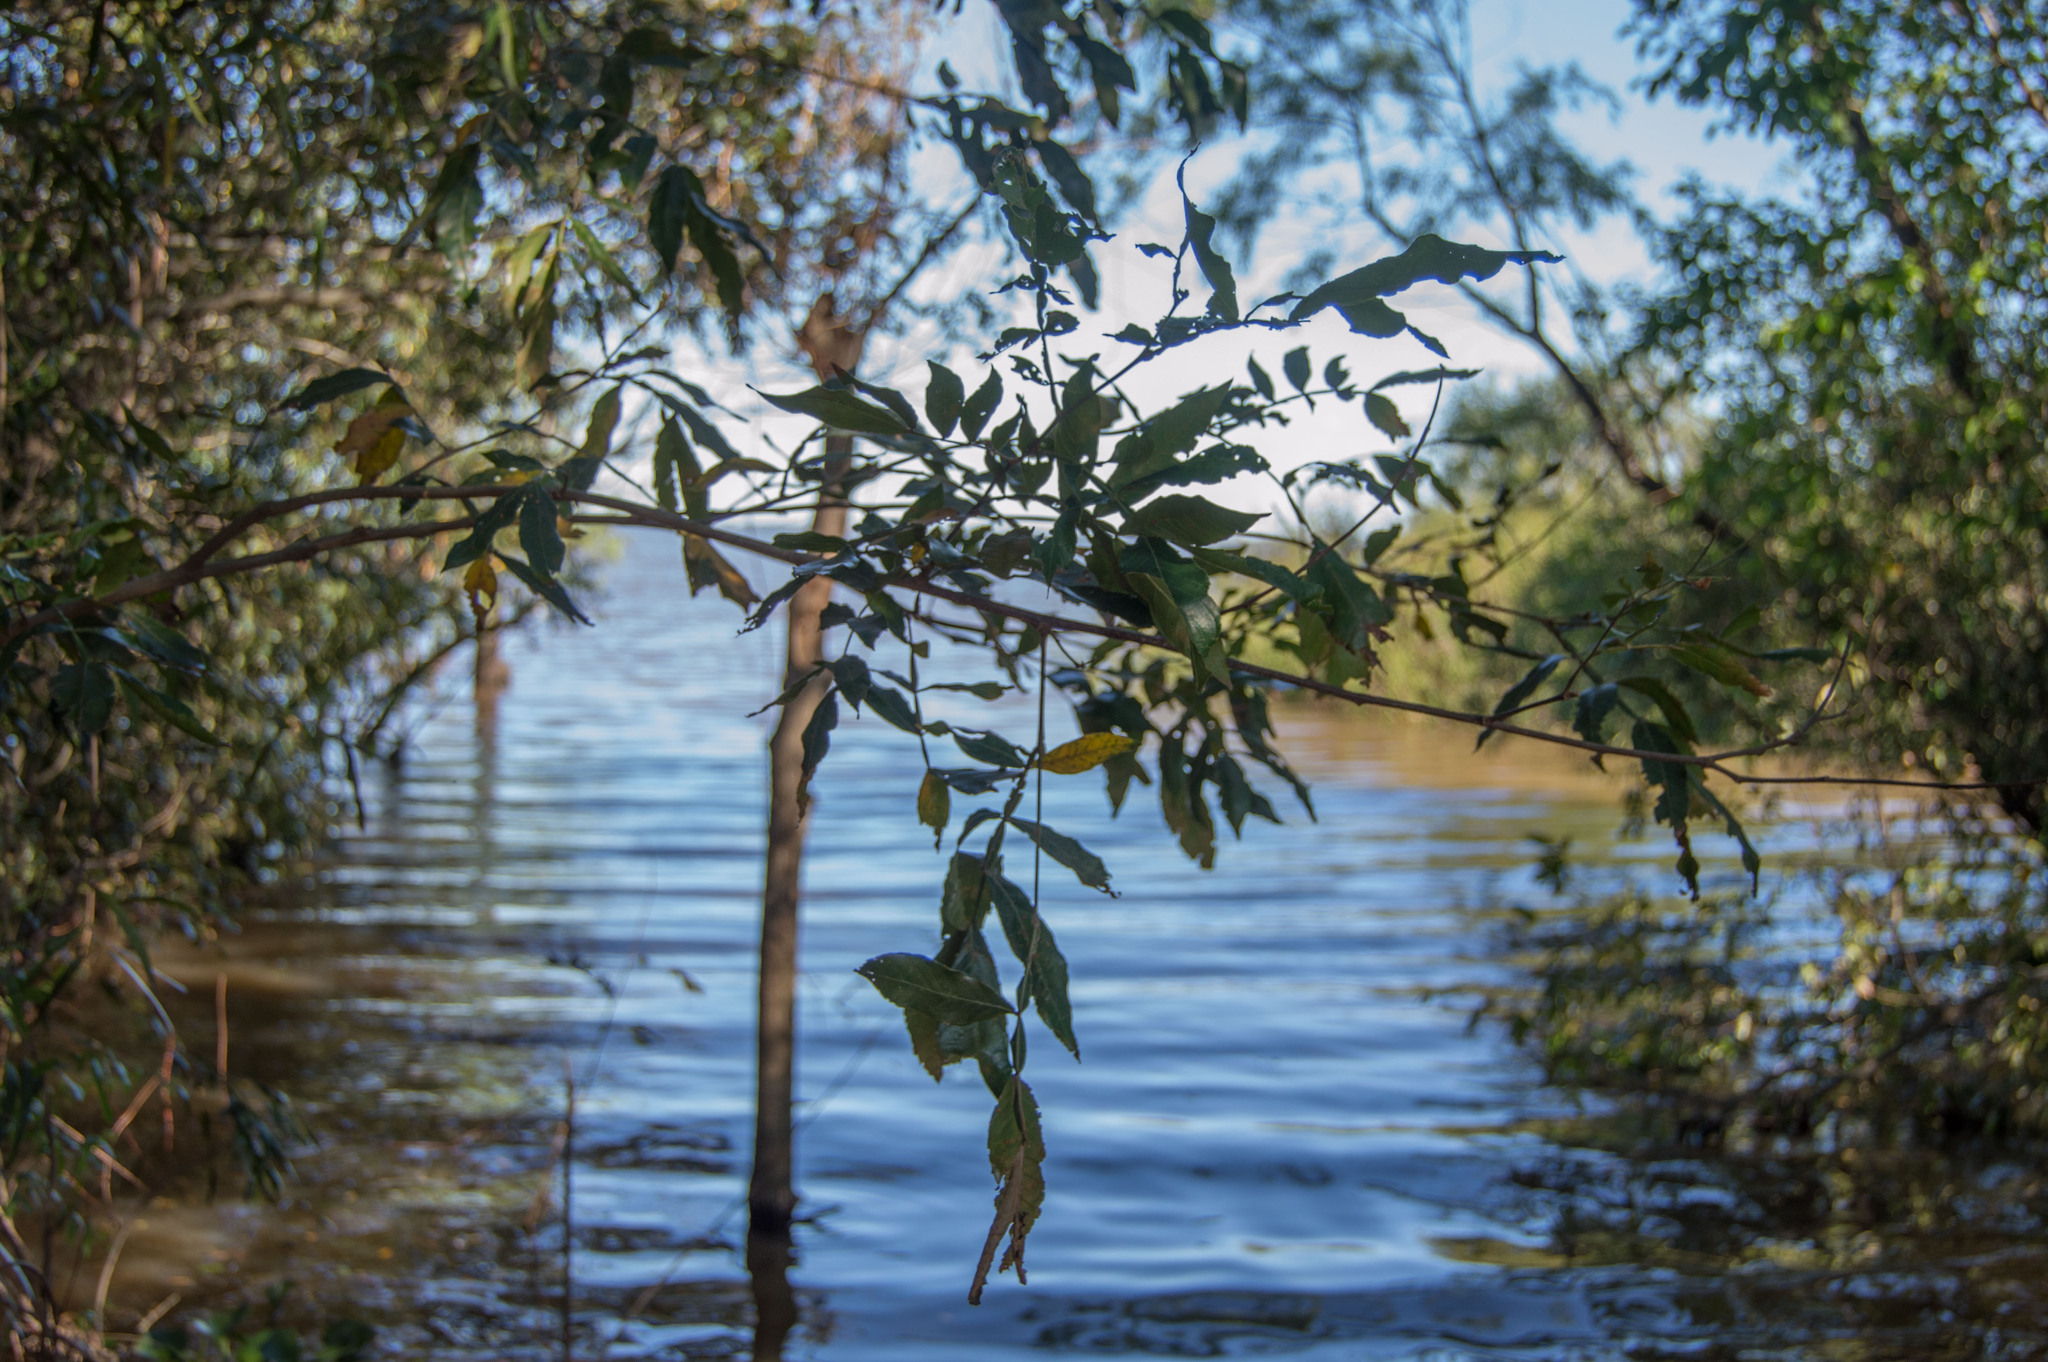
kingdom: Plantae
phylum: Tracheophyta
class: Magnoliopsida
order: Fabales
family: Fabaceae
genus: Inga
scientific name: Inga uraguensis
